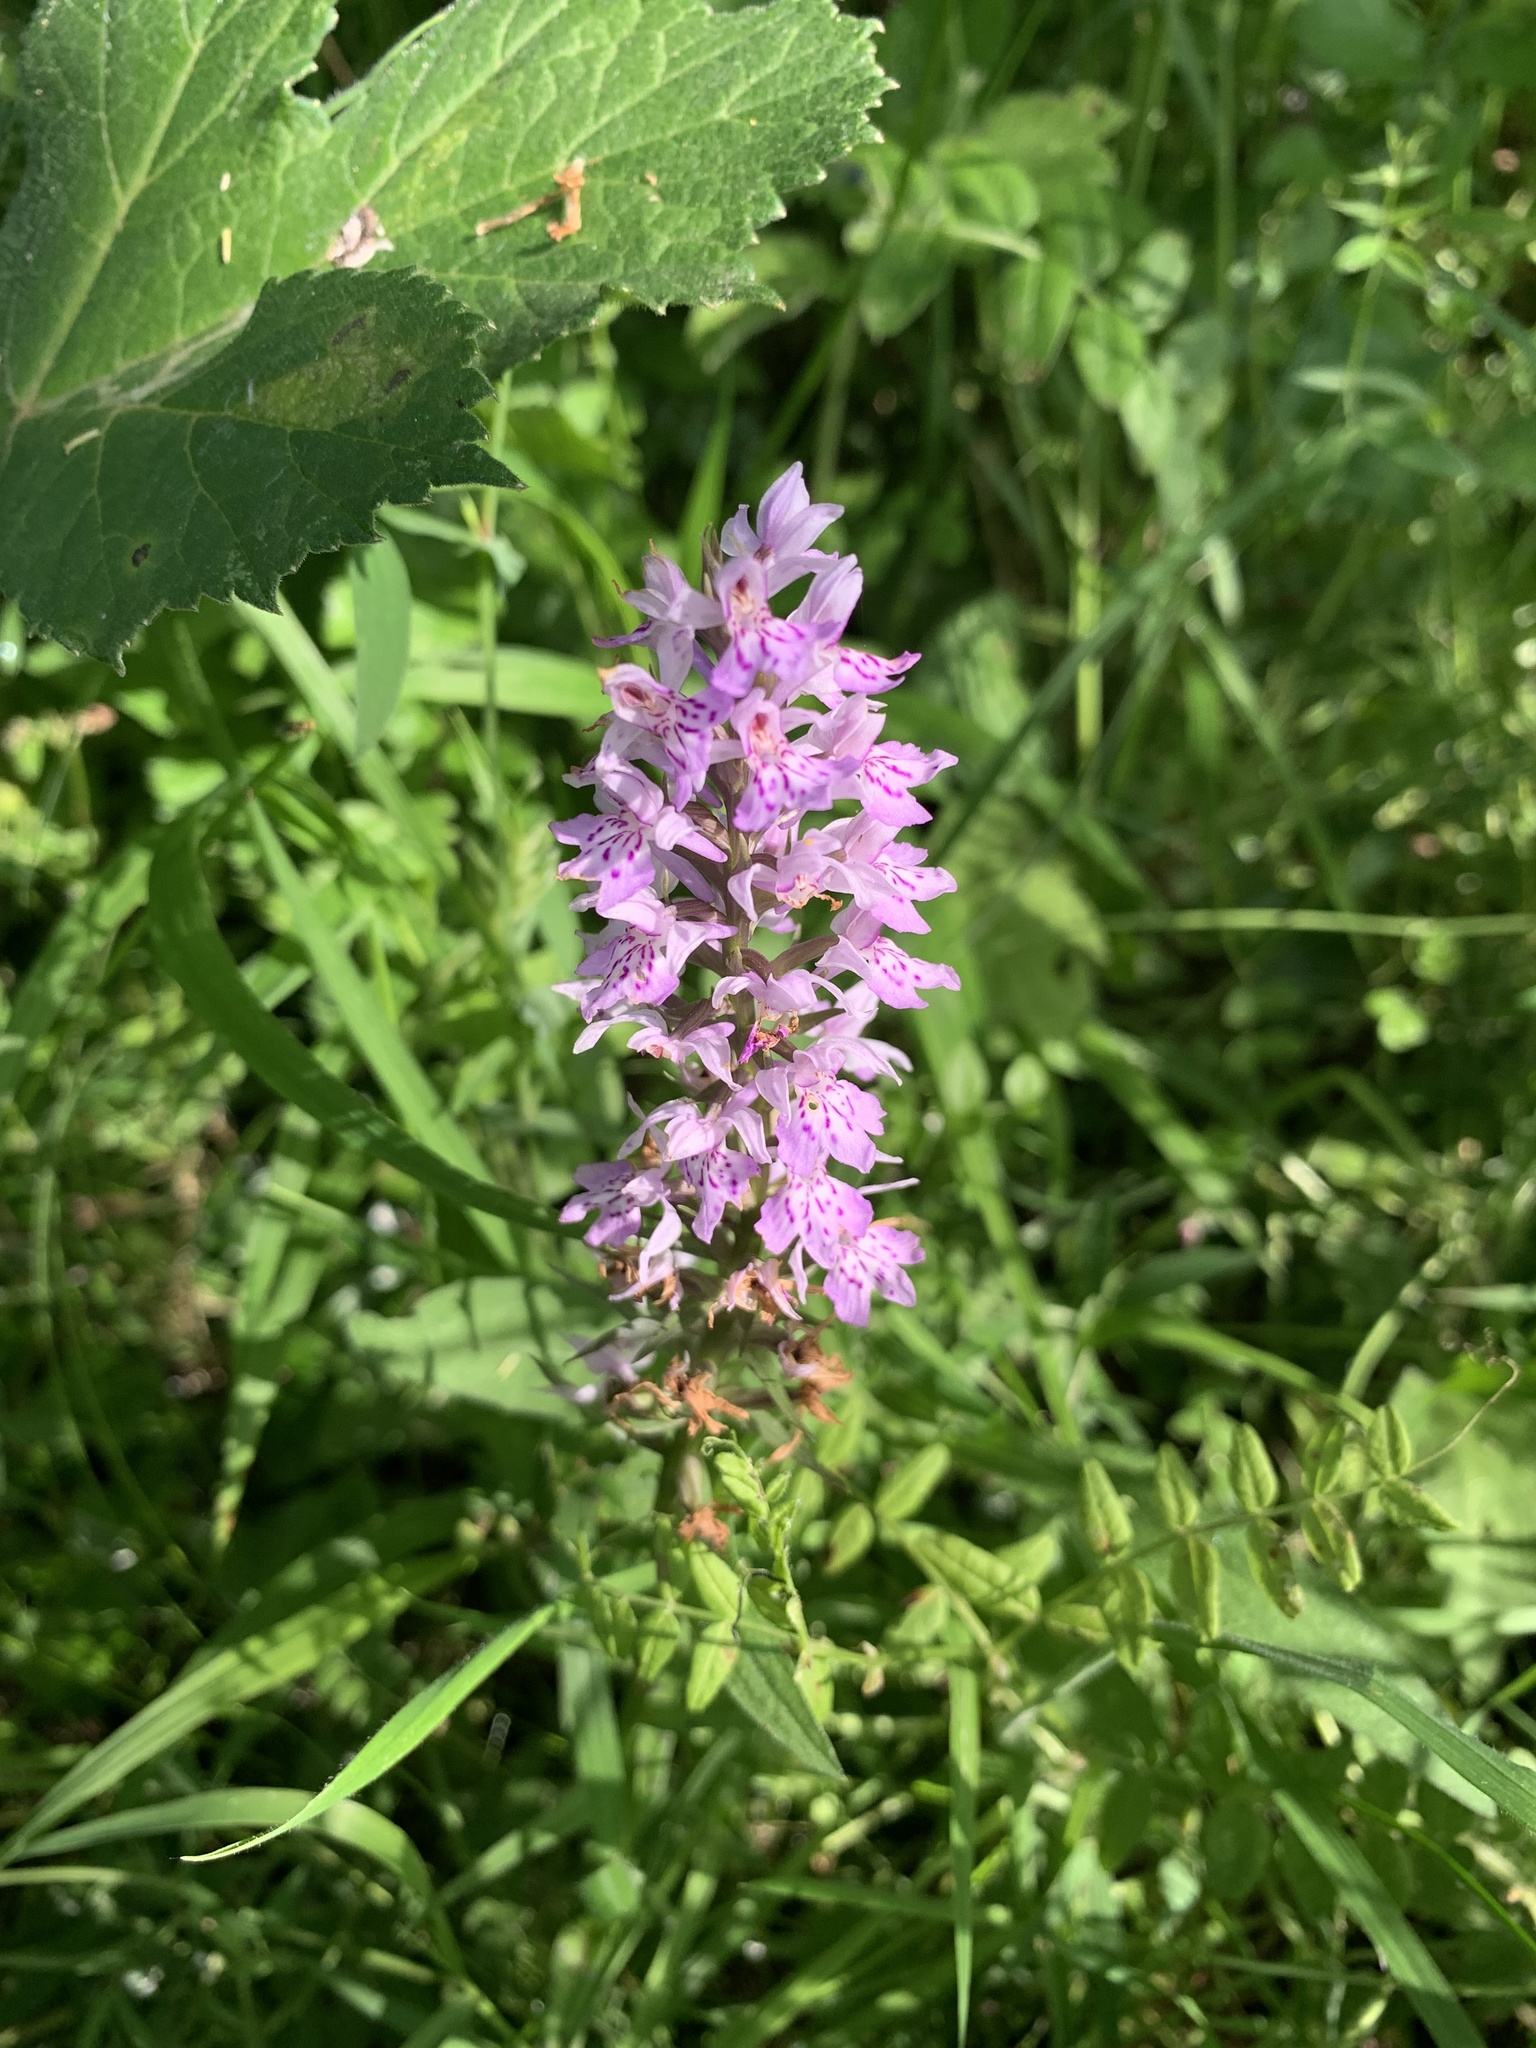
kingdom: Plantae
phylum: Tracheophyta
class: Liliopsida
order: Asparagales
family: Orchidaceae
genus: Dactylorhiza
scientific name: Dactylorhiza maculata
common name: Heath spotted-orchid
